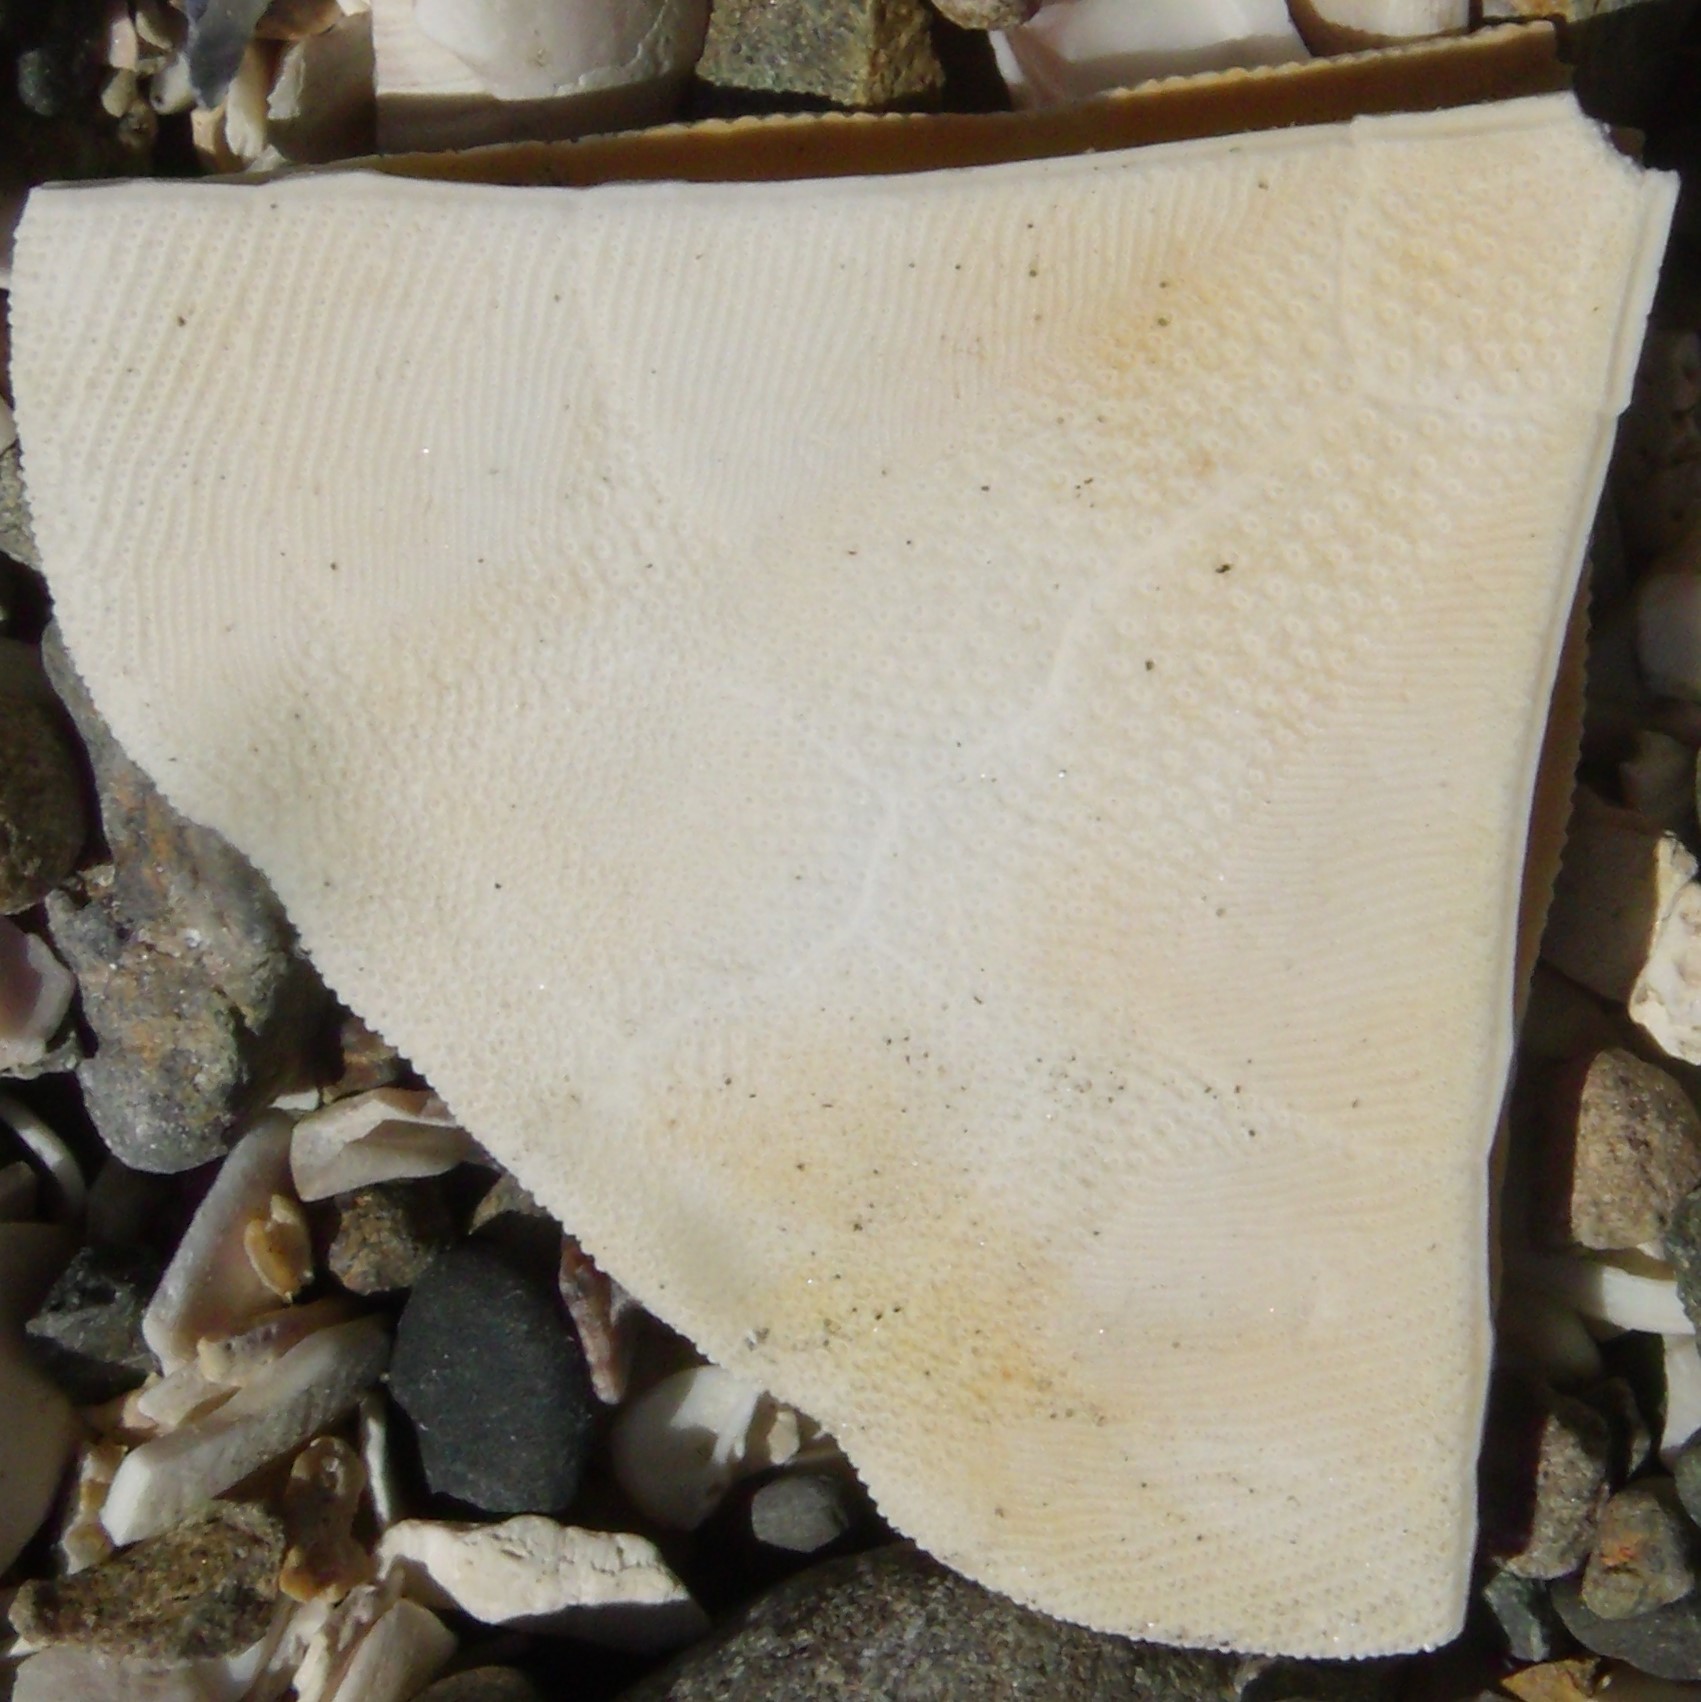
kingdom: Animalia
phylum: Echinodermata
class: Echinoidea
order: Clypeasteroida
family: Clypeasteridae
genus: Fellaster
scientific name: Fellaster zelandiae
